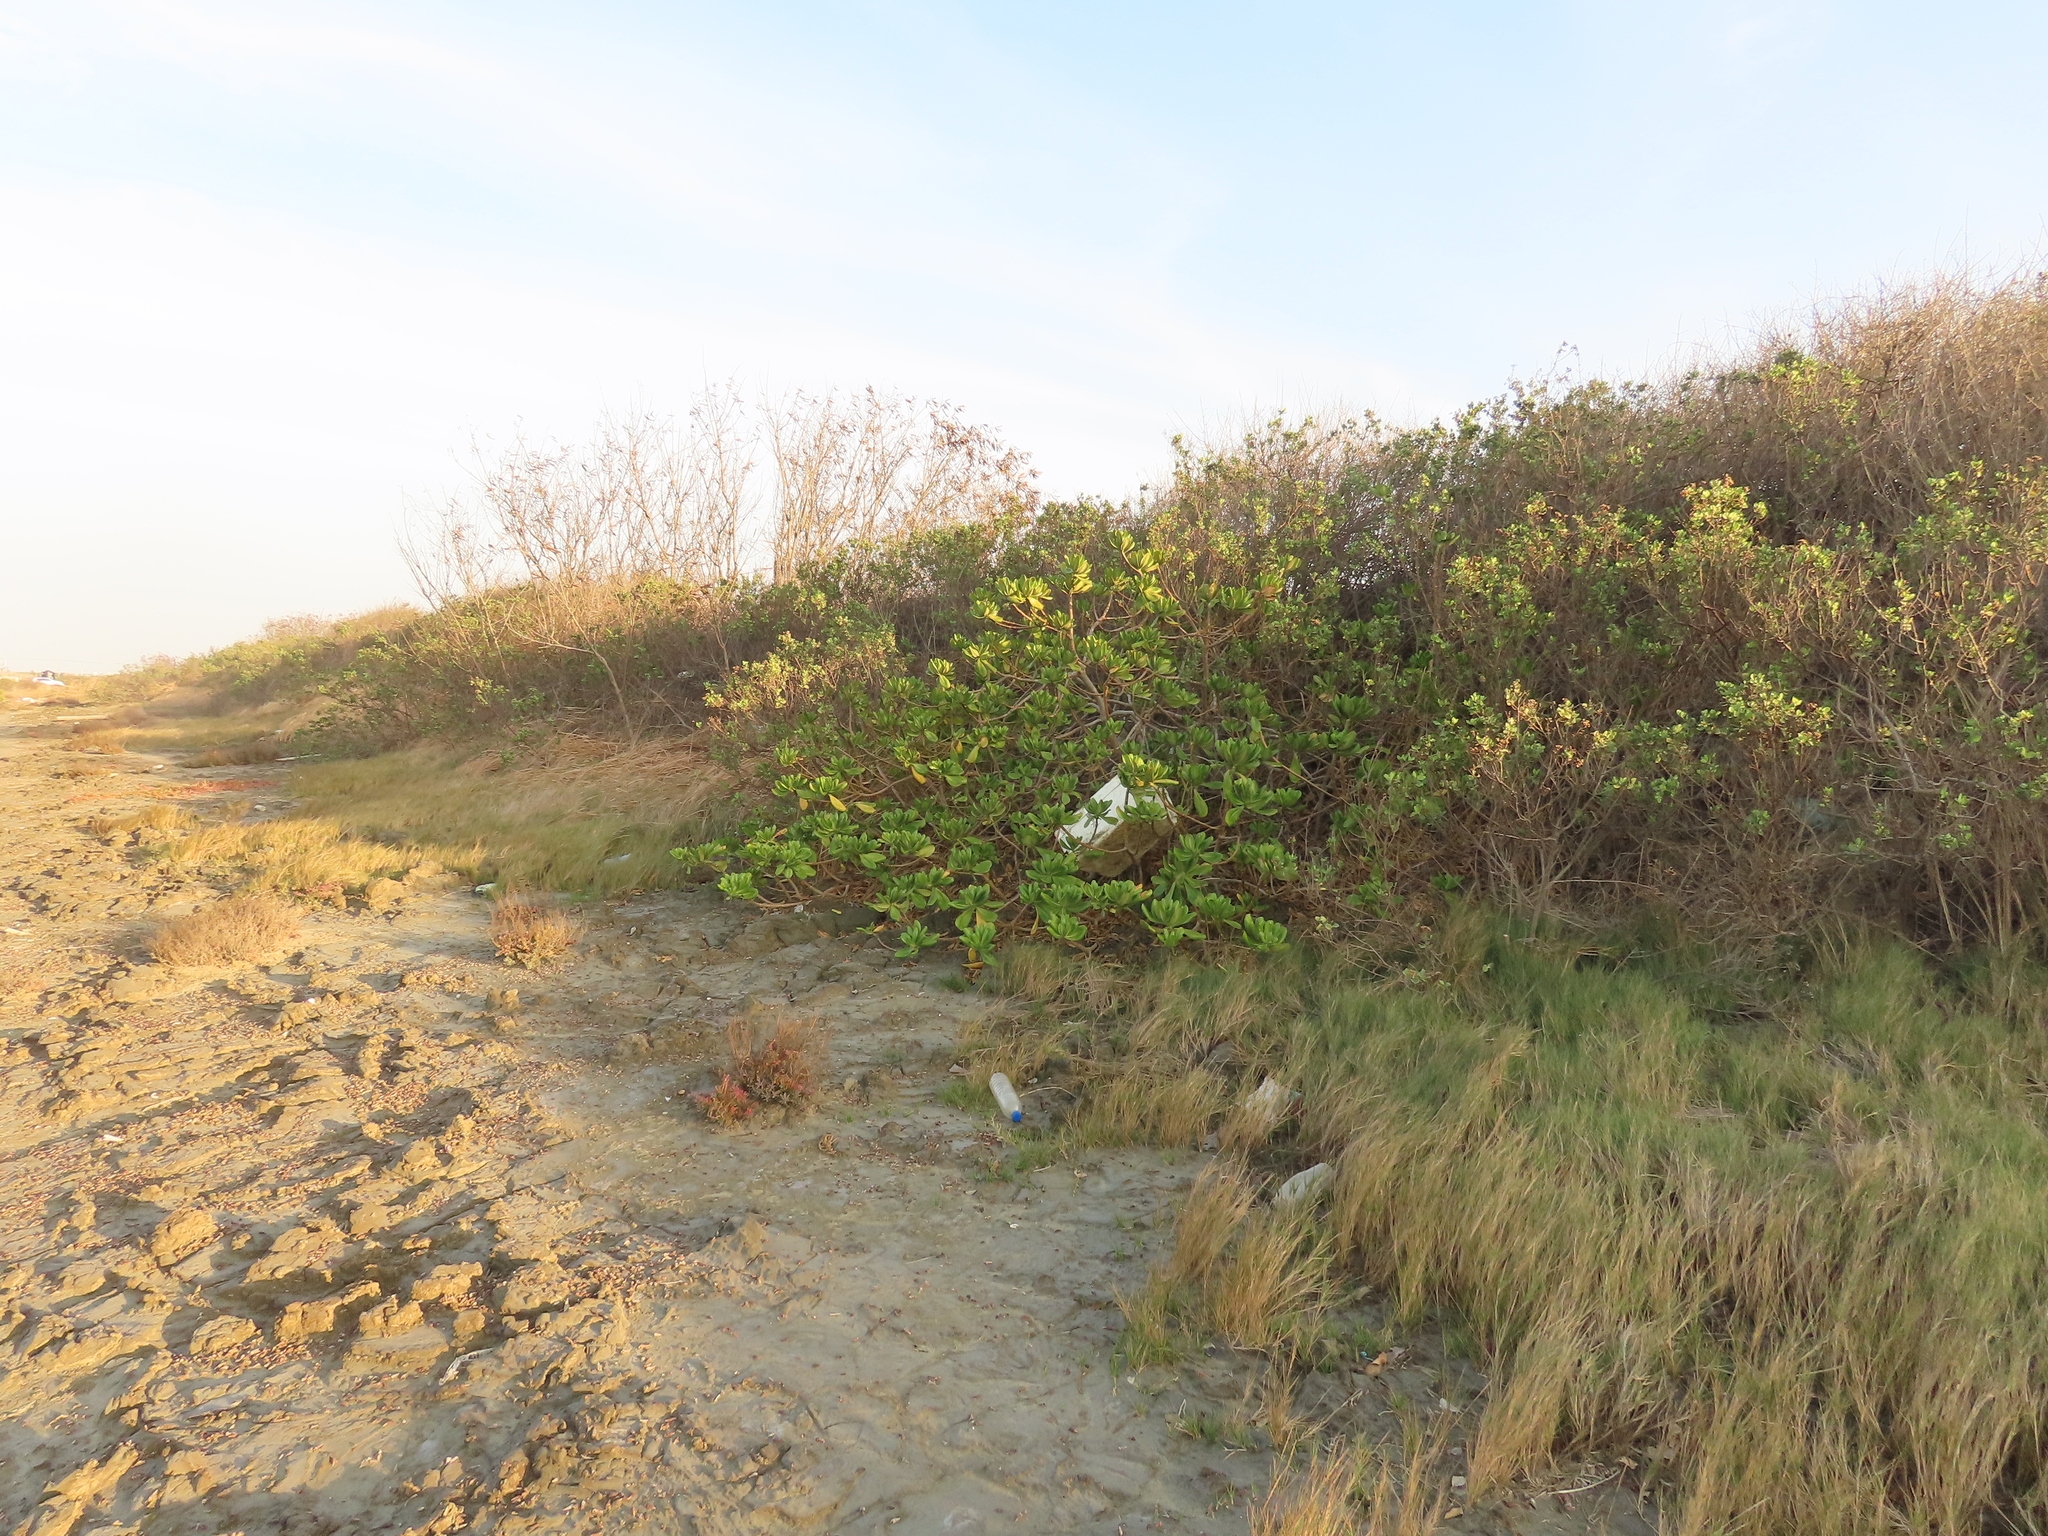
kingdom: Plantae
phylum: Tracheophyta
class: Magnoliopsida
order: Asterales
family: Goodeniaceae
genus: Scaevola
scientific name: Scaevola taccada
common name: Sea lettucetree
